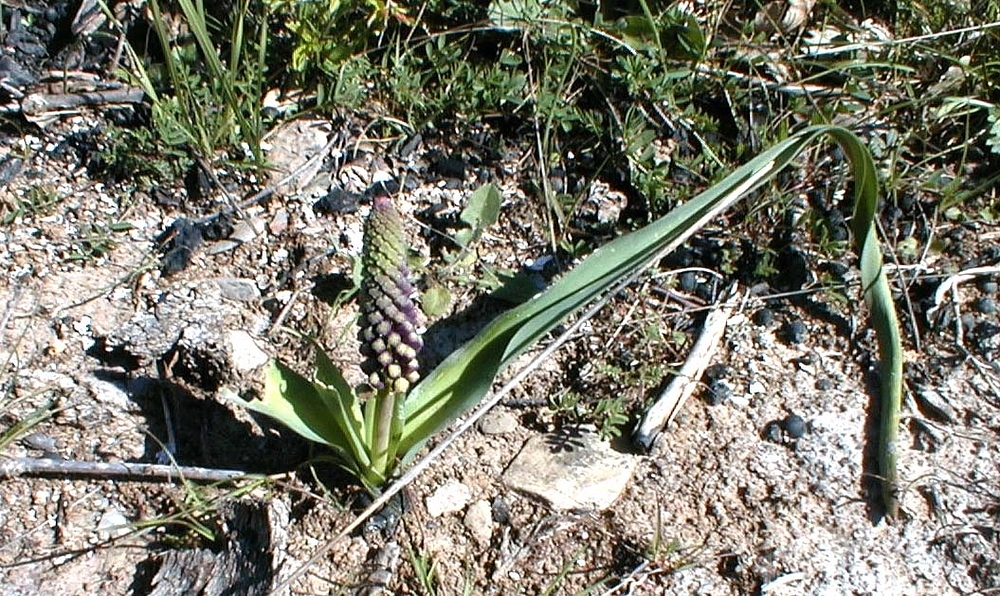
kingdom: Plantae
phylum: Tracheophyta
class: Liliopsida
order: Asparagales
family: Asparagaceae
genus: Muscari
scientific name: Muscari comosum
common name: Tassel hyacinth
